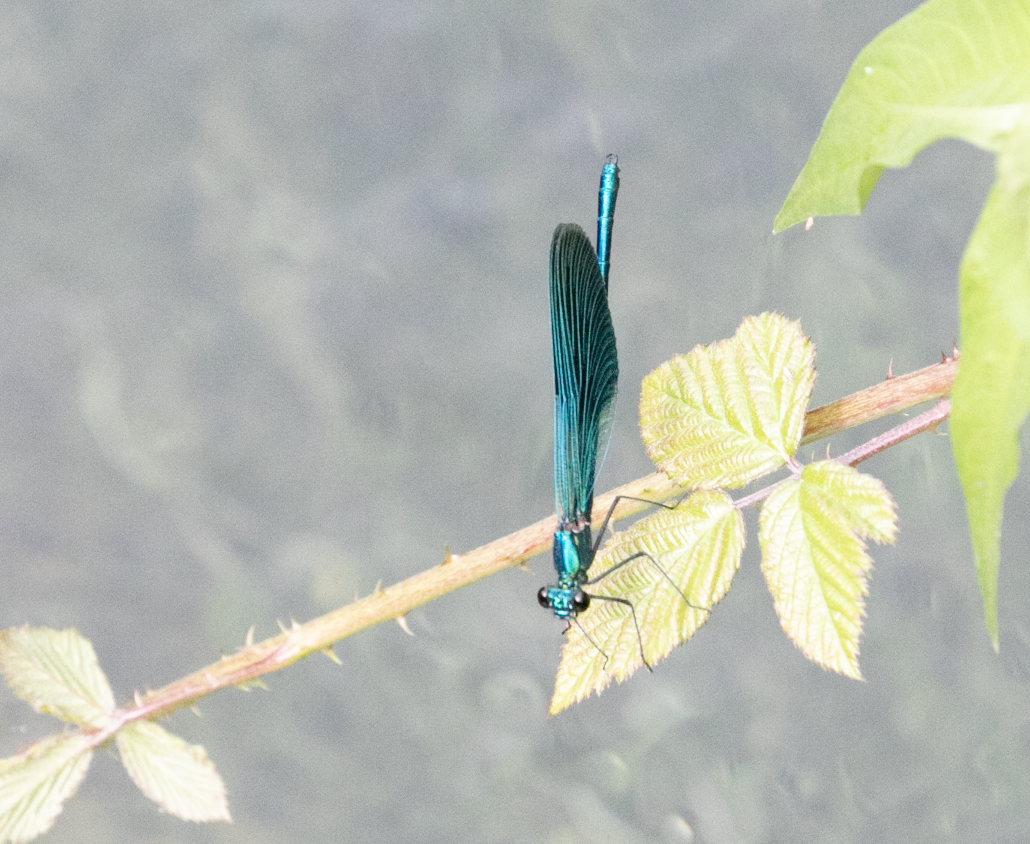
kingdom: Animalia
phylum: Arthropoda
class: Insecta
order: Odonata
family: Calopterygidae
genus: Calopteryx
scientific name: Calopteryx splendens
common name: Banded demoiselle
